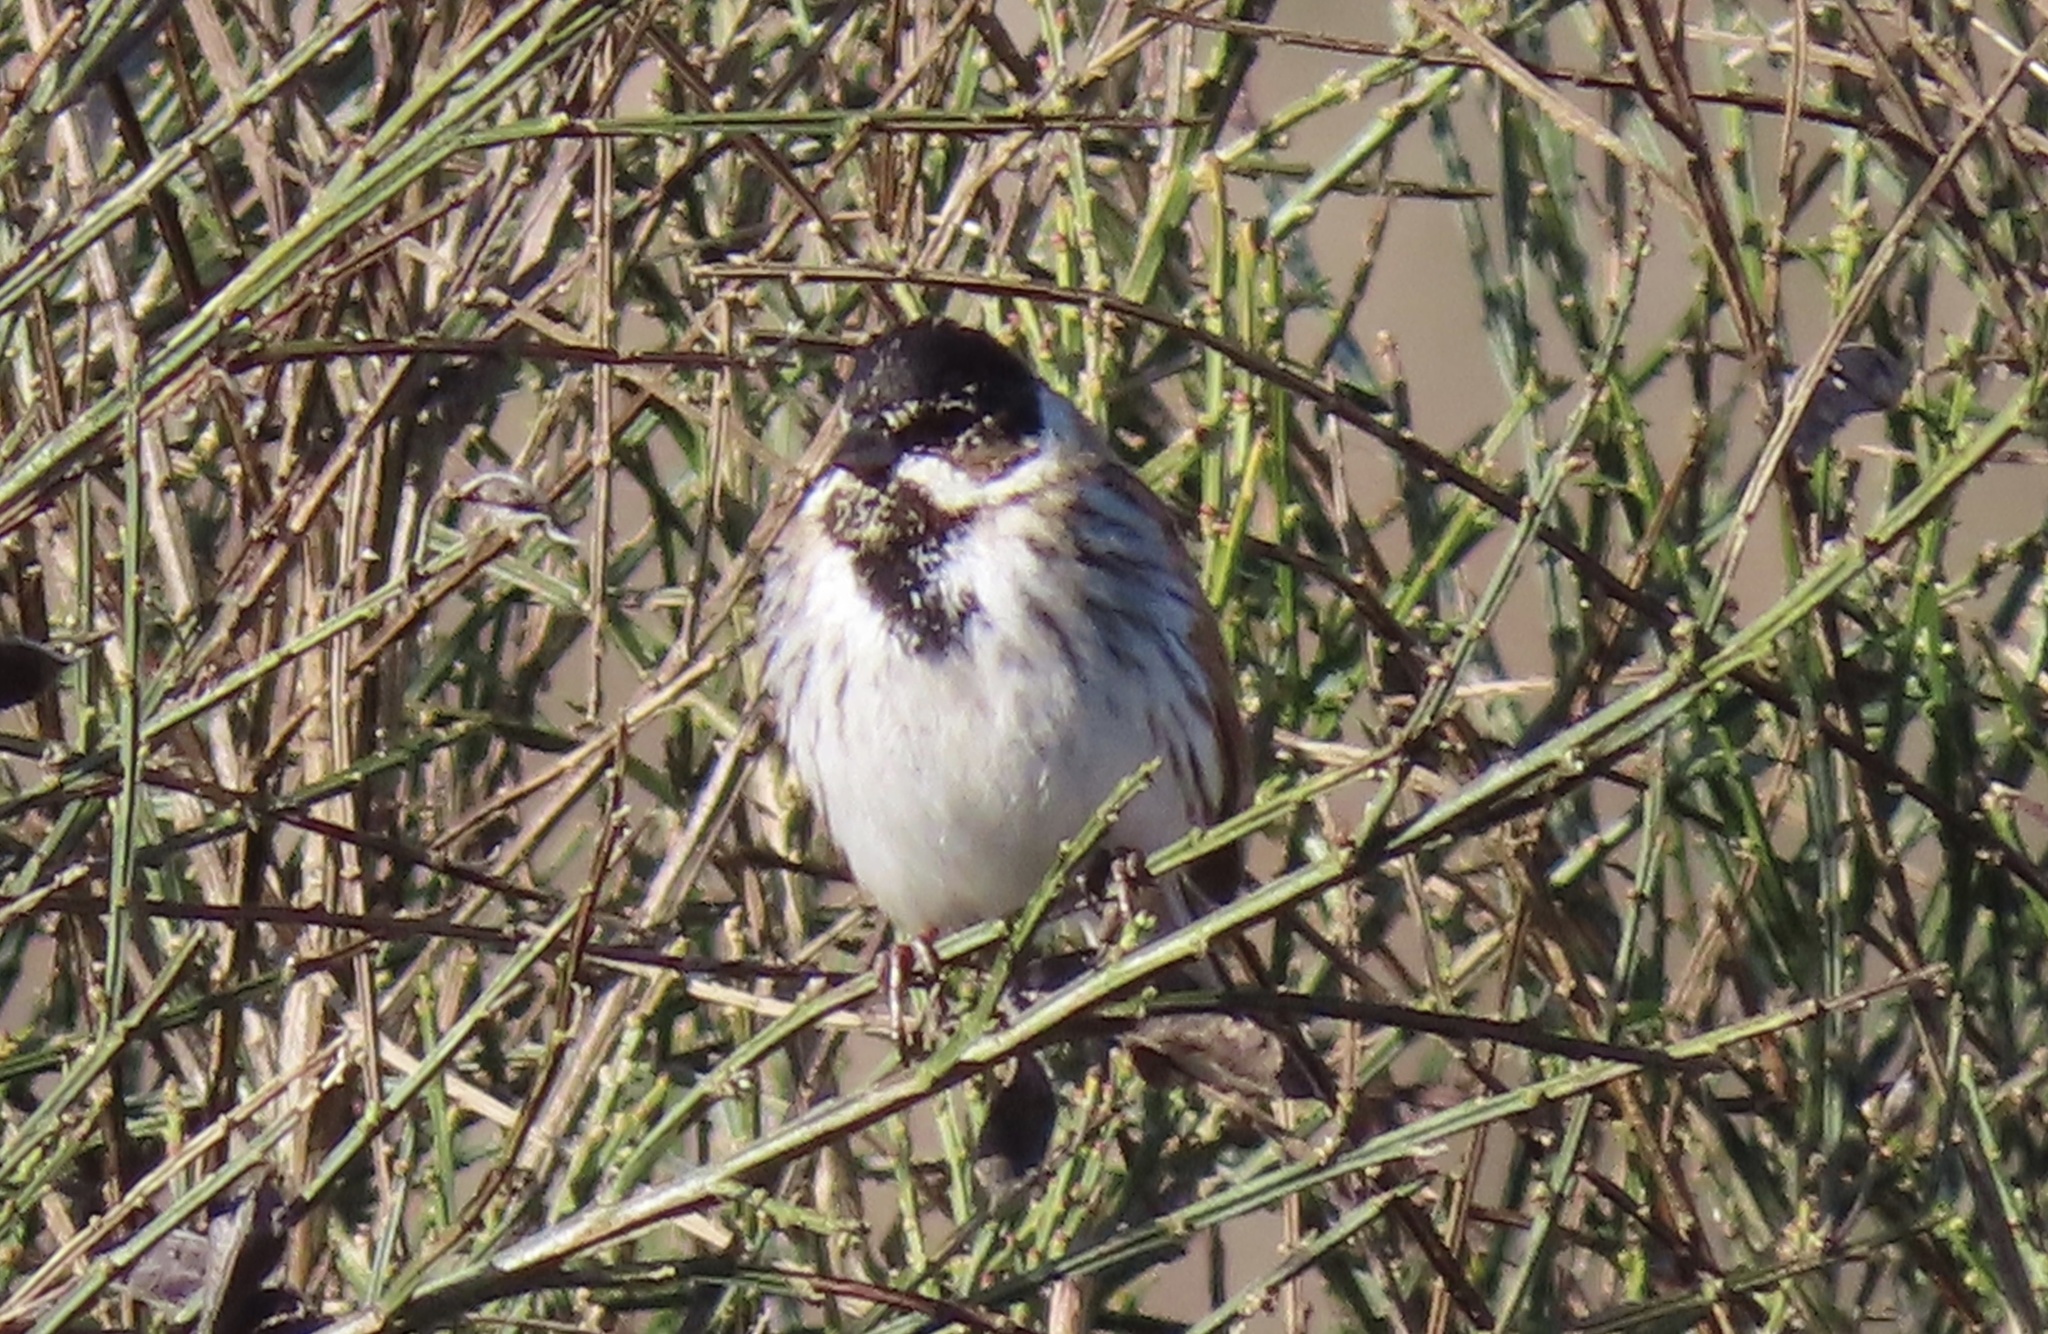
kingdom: Animalia
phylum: Chordata
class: Aves
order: Passeriformes
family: Emberizidae
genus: Emberiza
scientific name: Emberiza schoeniclus
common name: Reed bunting
